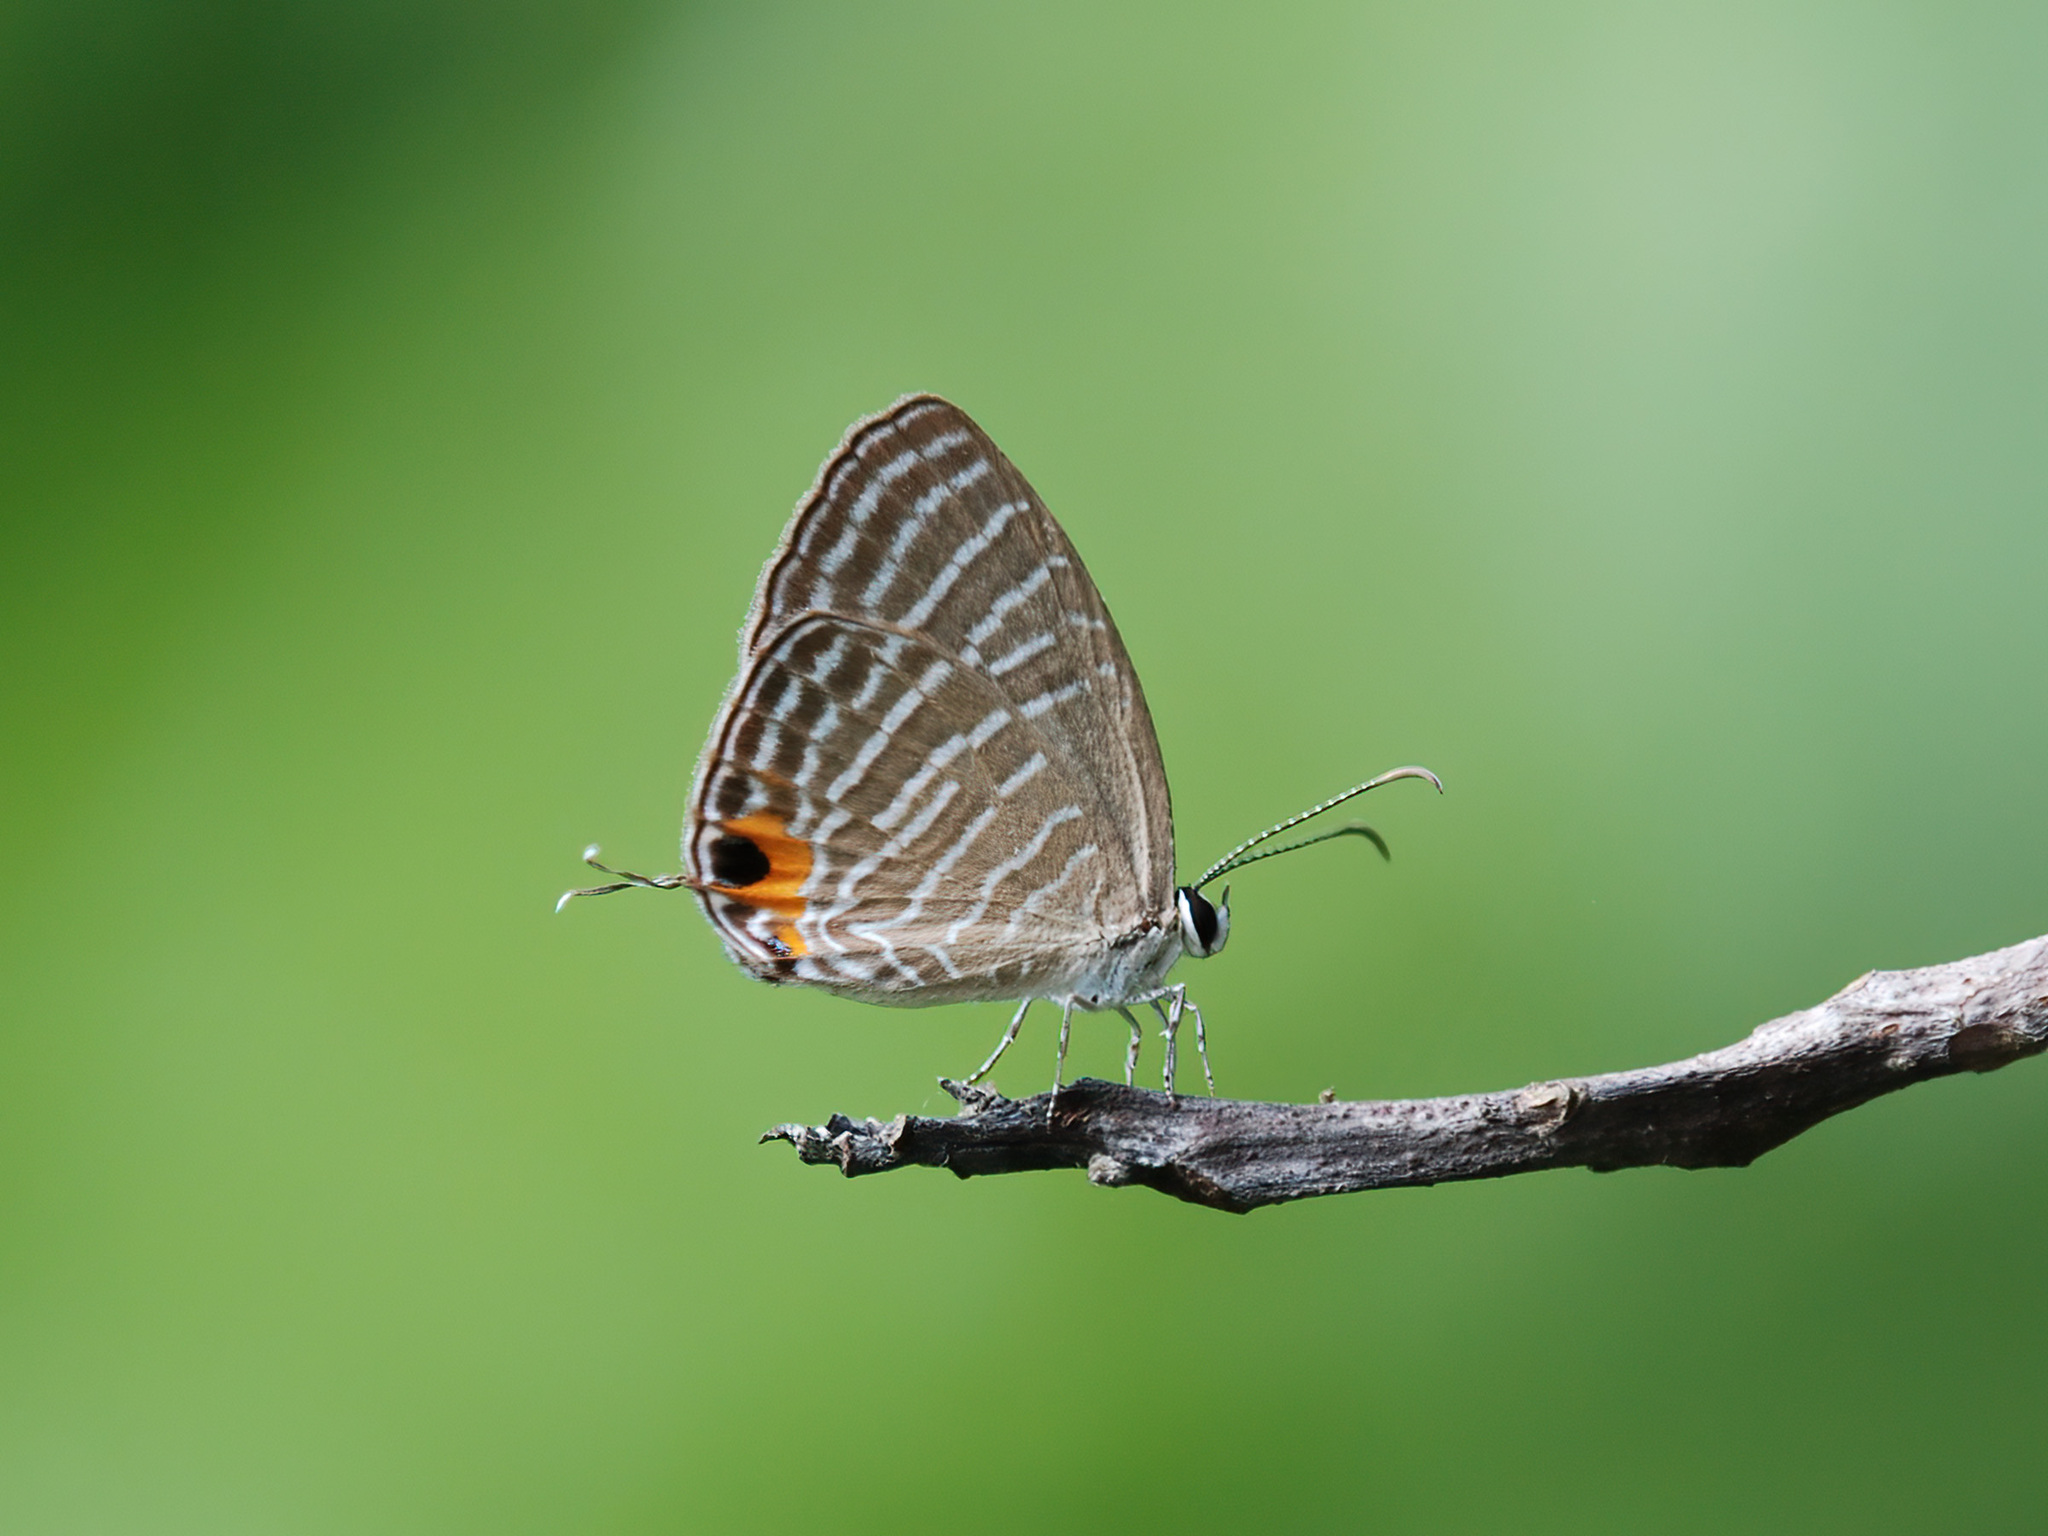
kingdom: Animalia
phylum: Arthropoda
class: Insecta
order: Lepidoptera
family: Lycaenidae
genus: Jamides
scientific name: Jamides celeno
